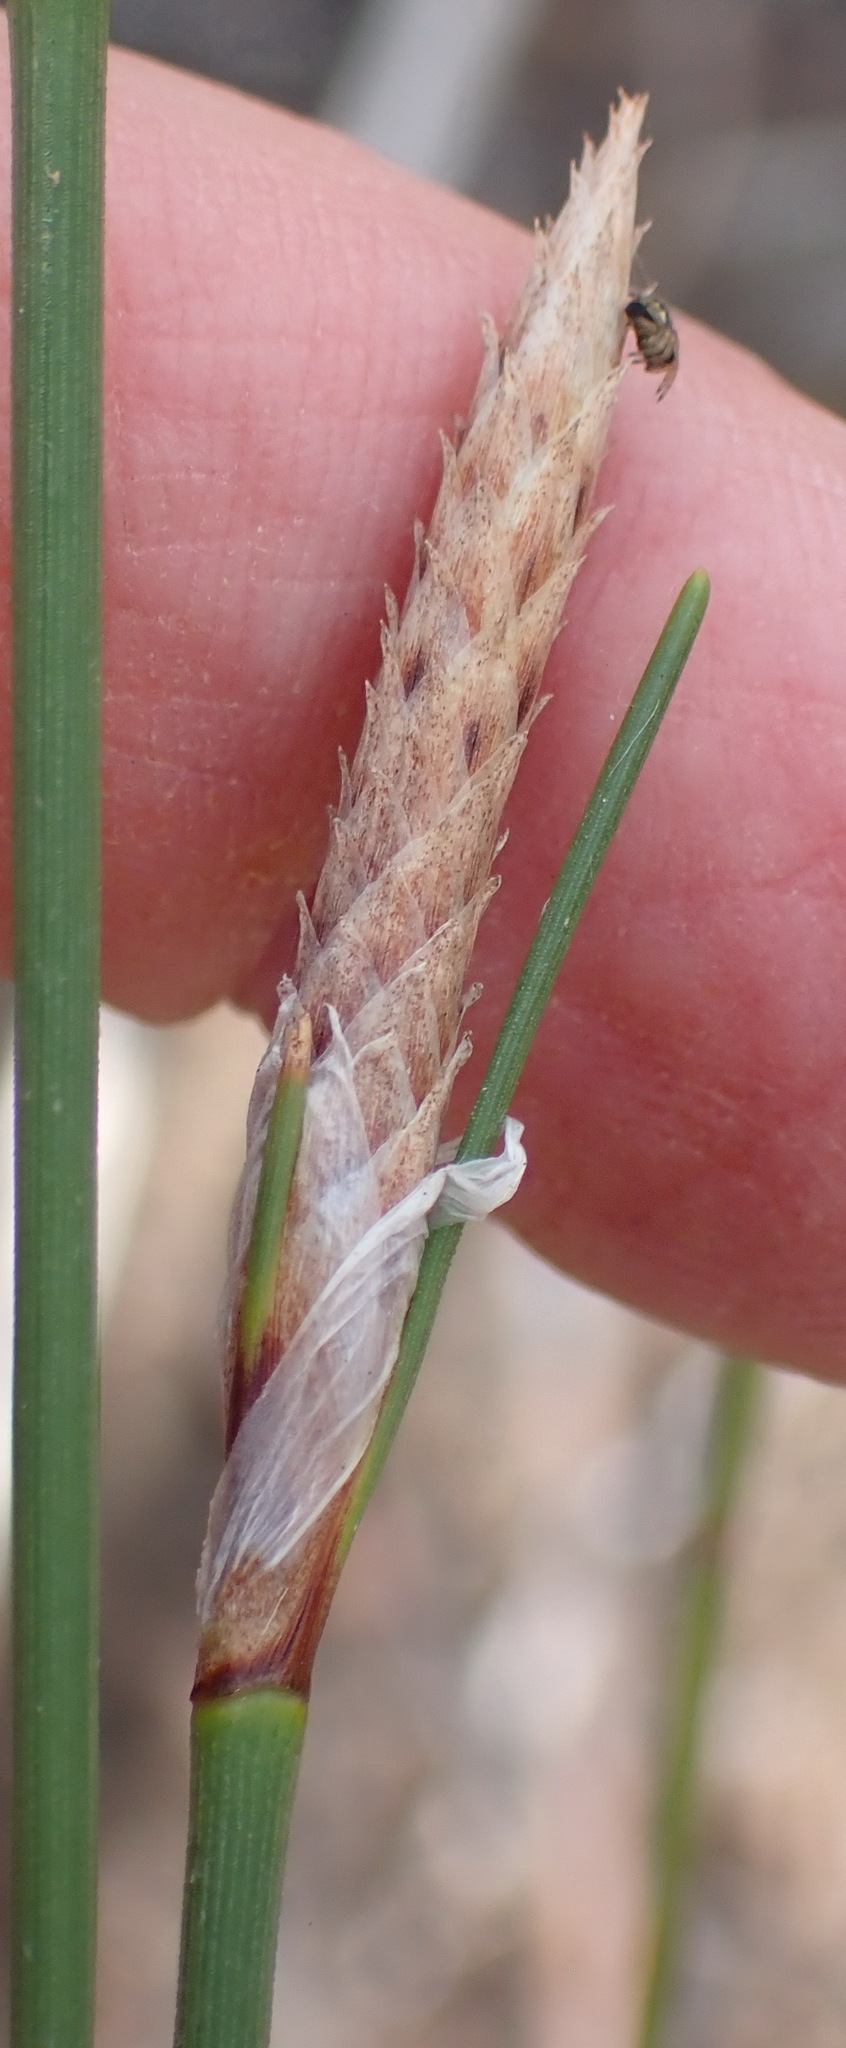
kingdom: Plantae
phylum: Tracheophyta
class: Liliopsida
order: Poales
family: Cyperaceae
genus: Ficinia
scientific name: Ficinia deusta
